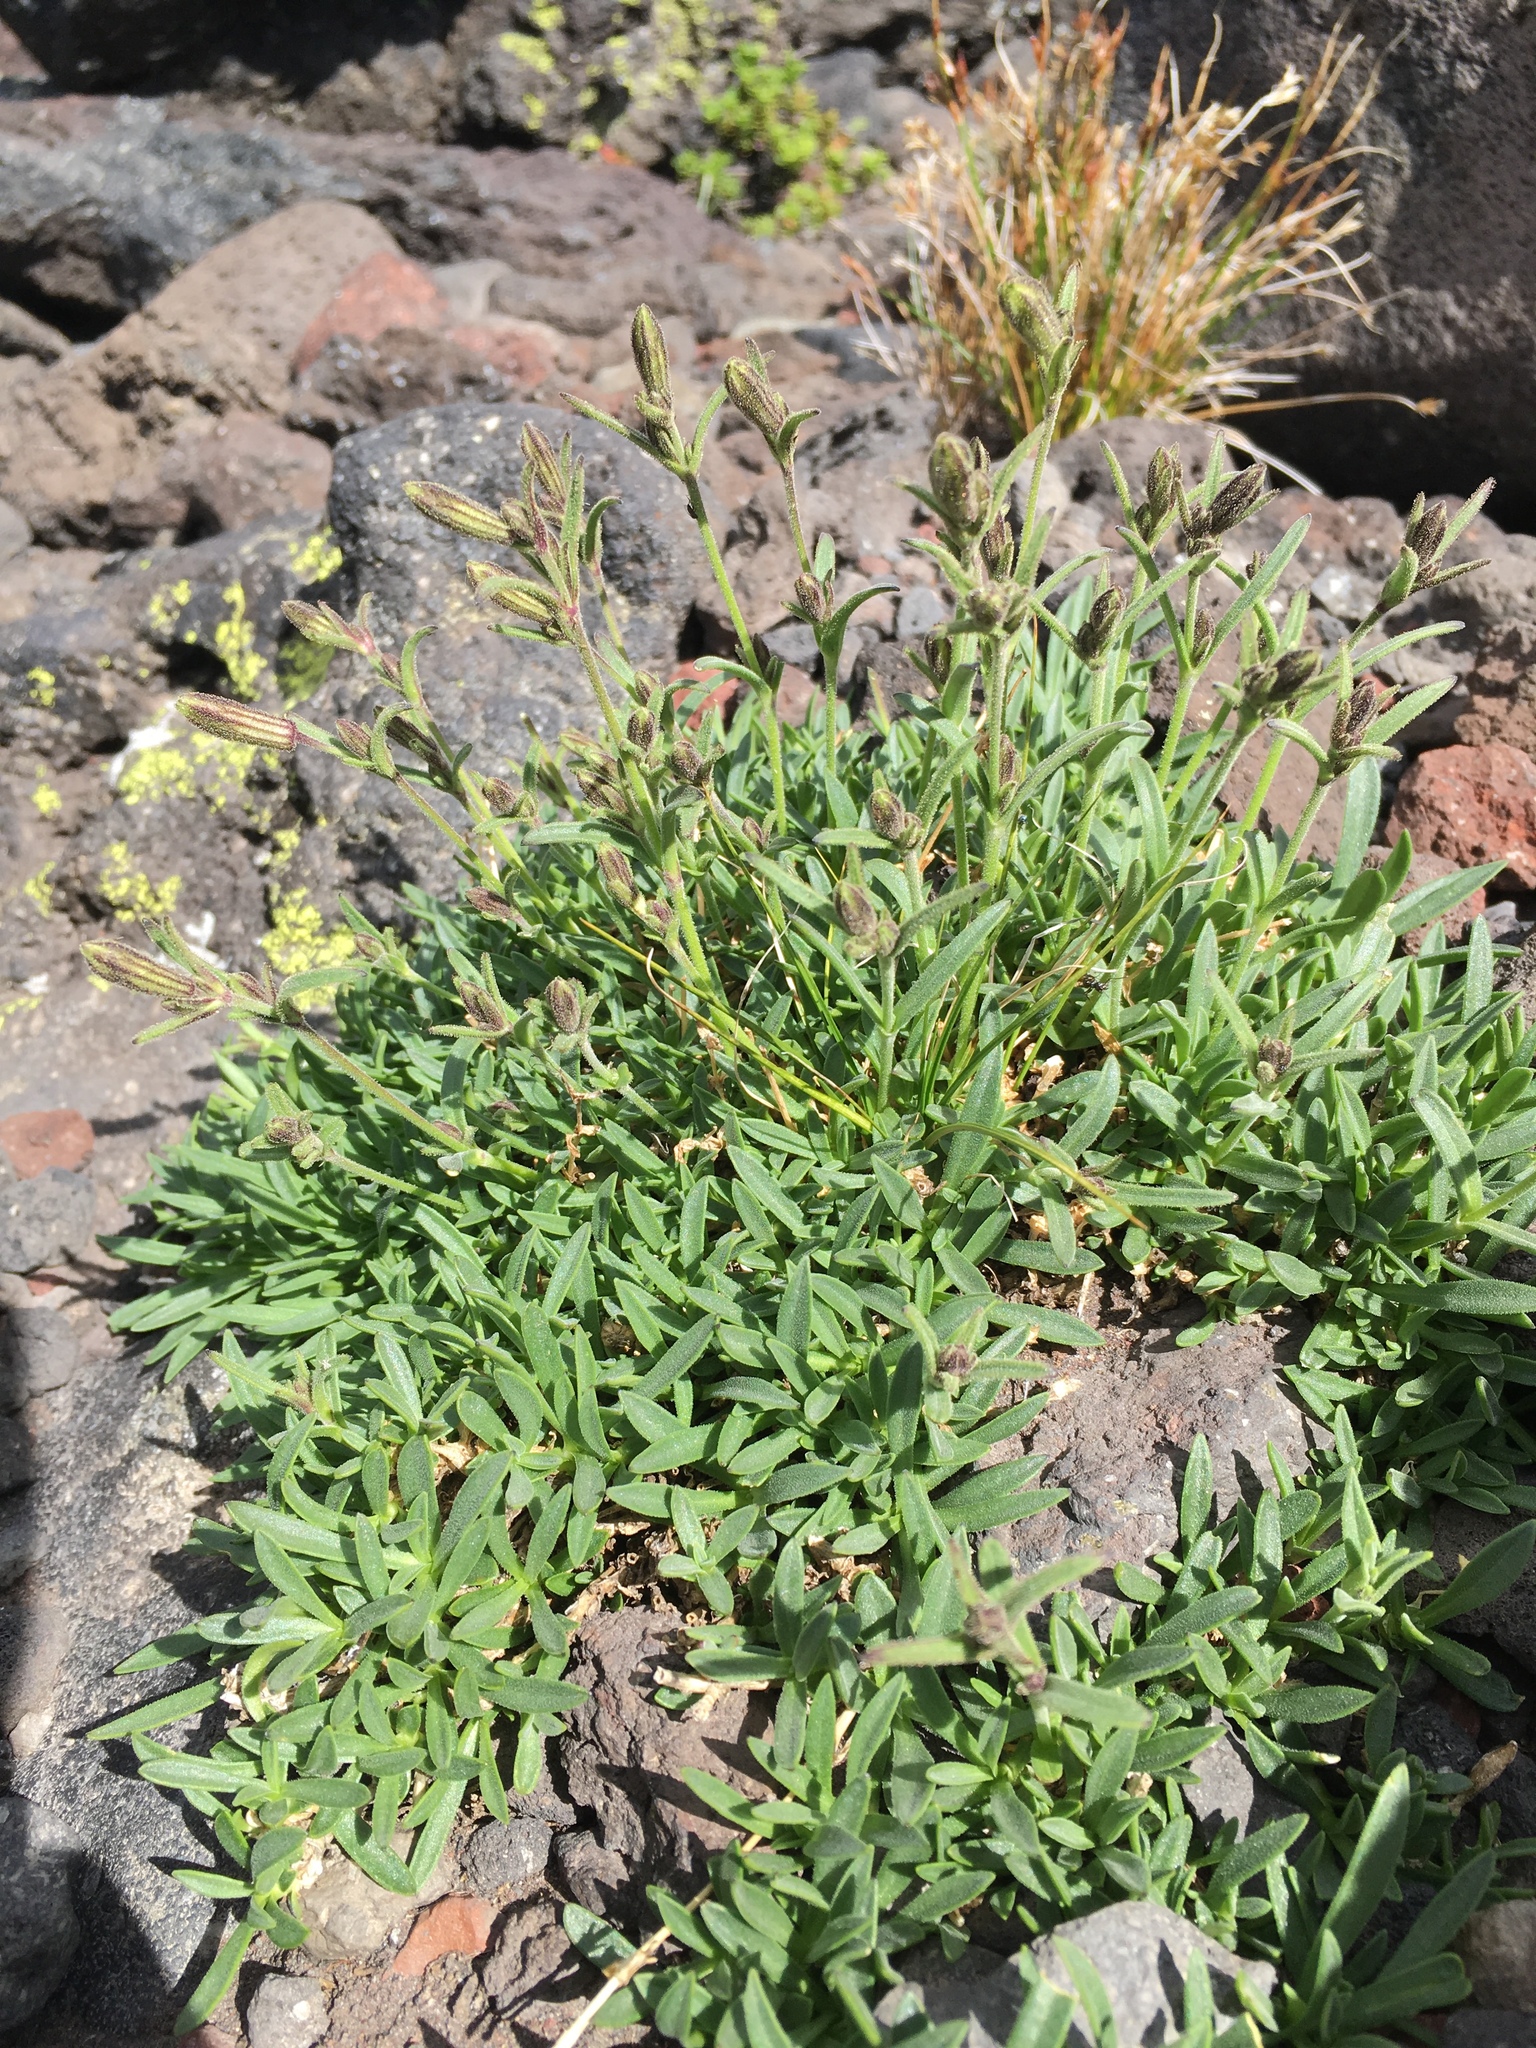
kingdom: Plantae
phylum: Tracheophyta
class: Magnoliopsida
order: Caryophyllales
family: Caryophyllaceae
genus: Silene
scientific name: Silene suksdorfii
